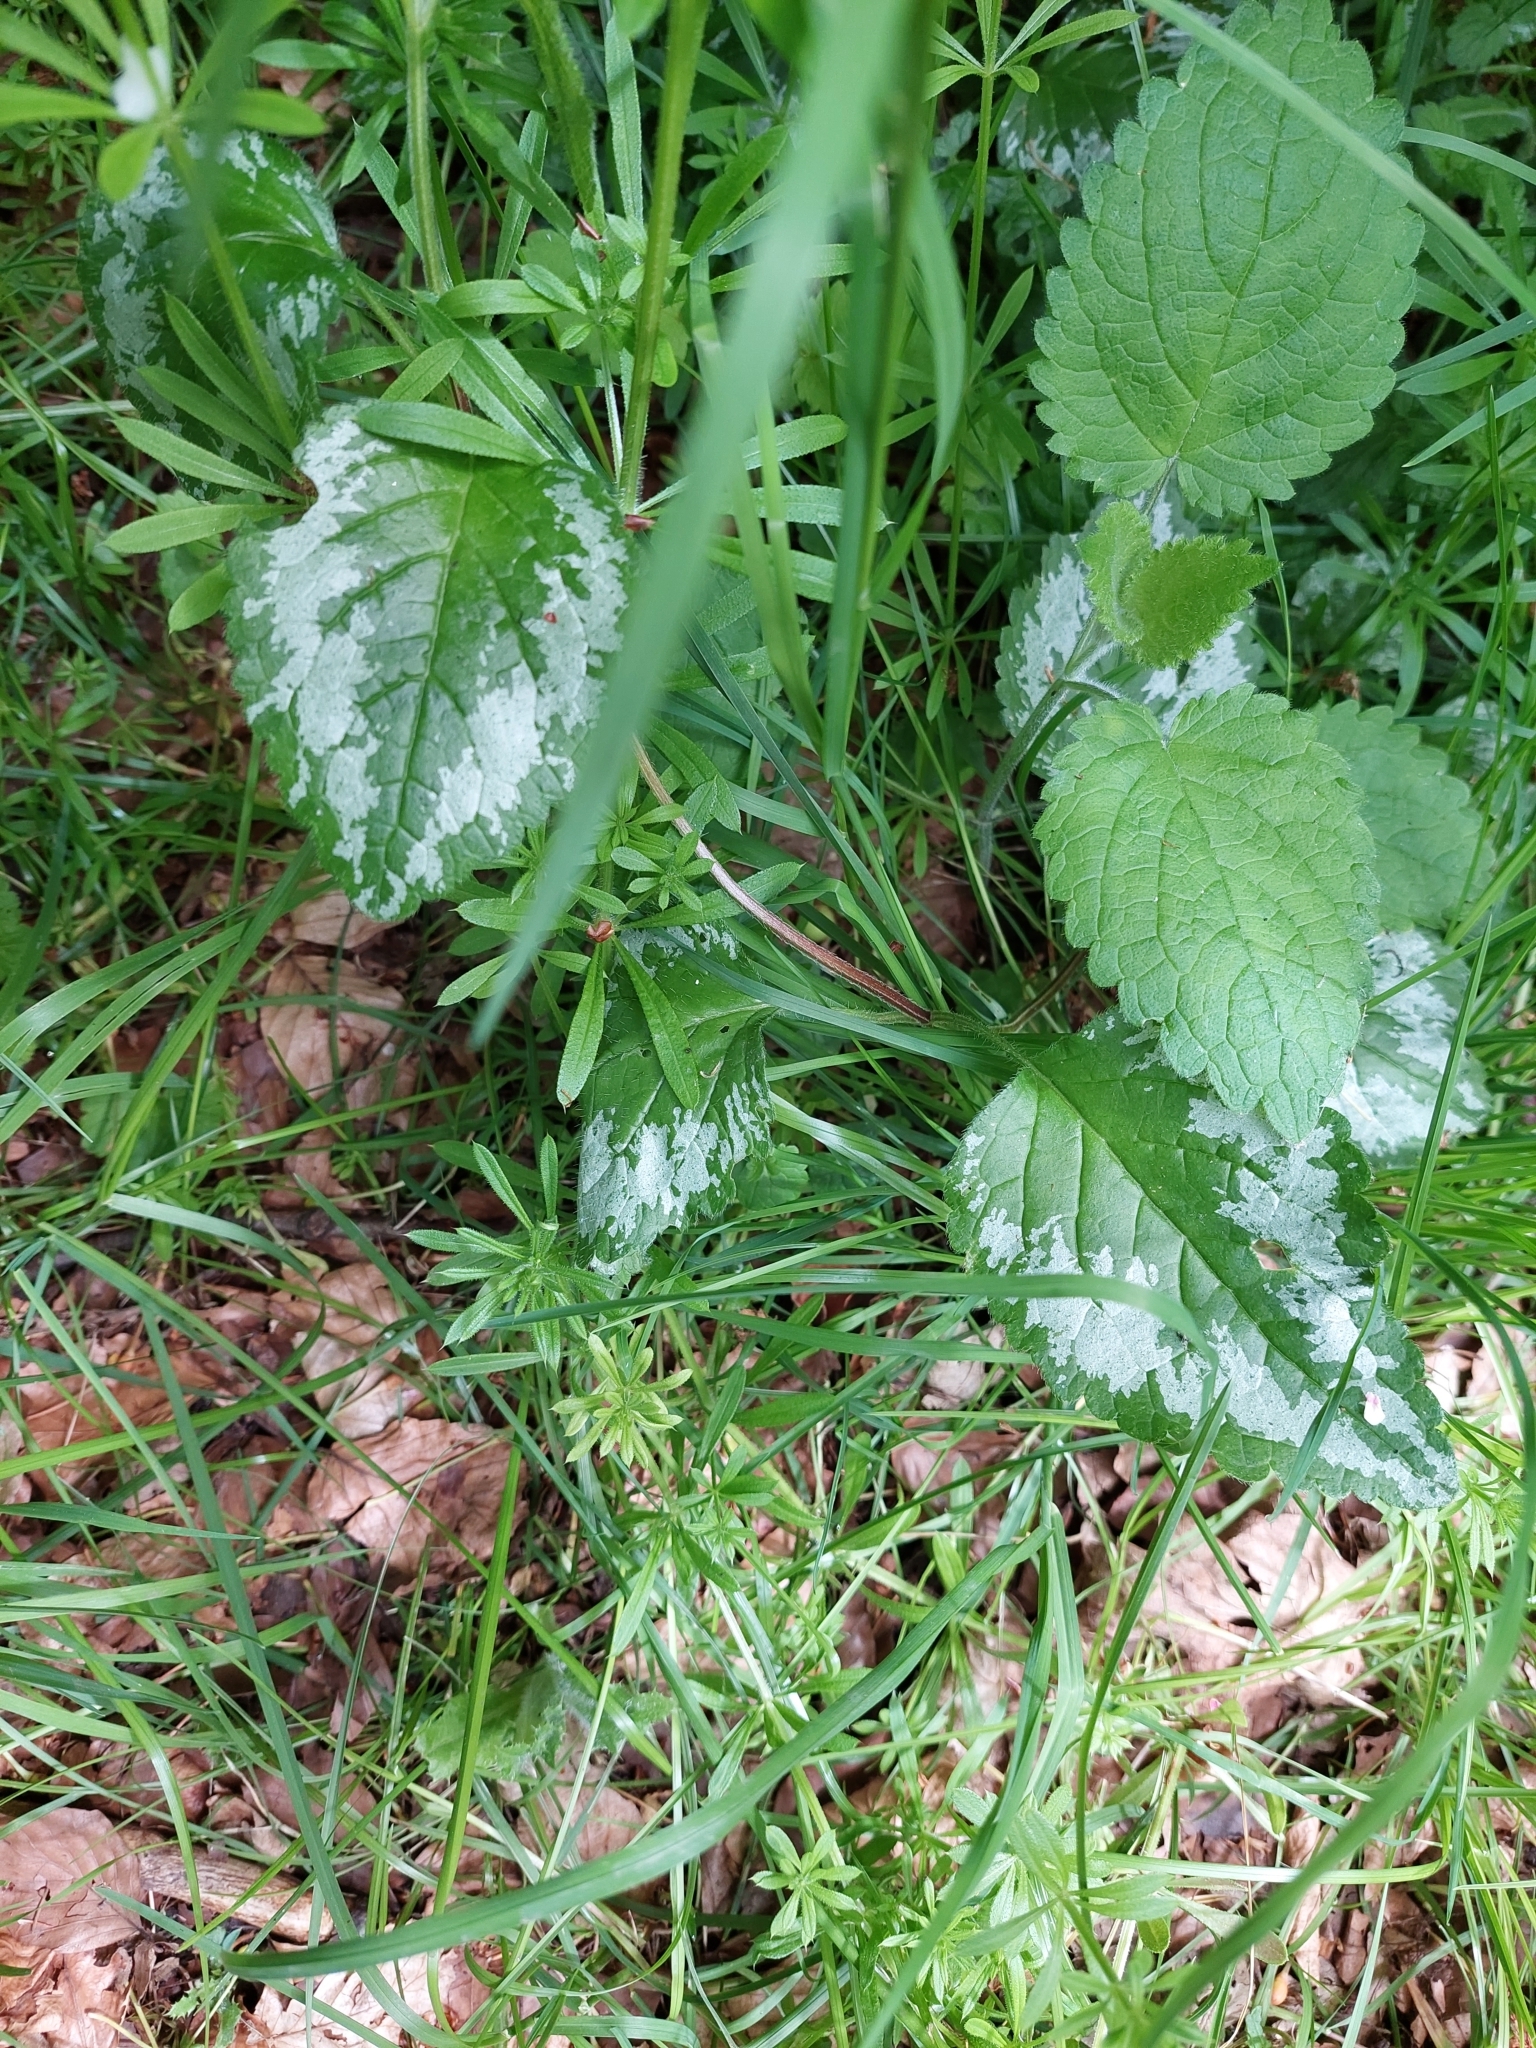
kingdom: Plantae
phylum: Tracheophyta
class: Magnoliopsida
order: Lamiales
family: Lamiaceae
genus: Lamium
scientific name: Lamium galeobdolon
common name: Yellow archangel
